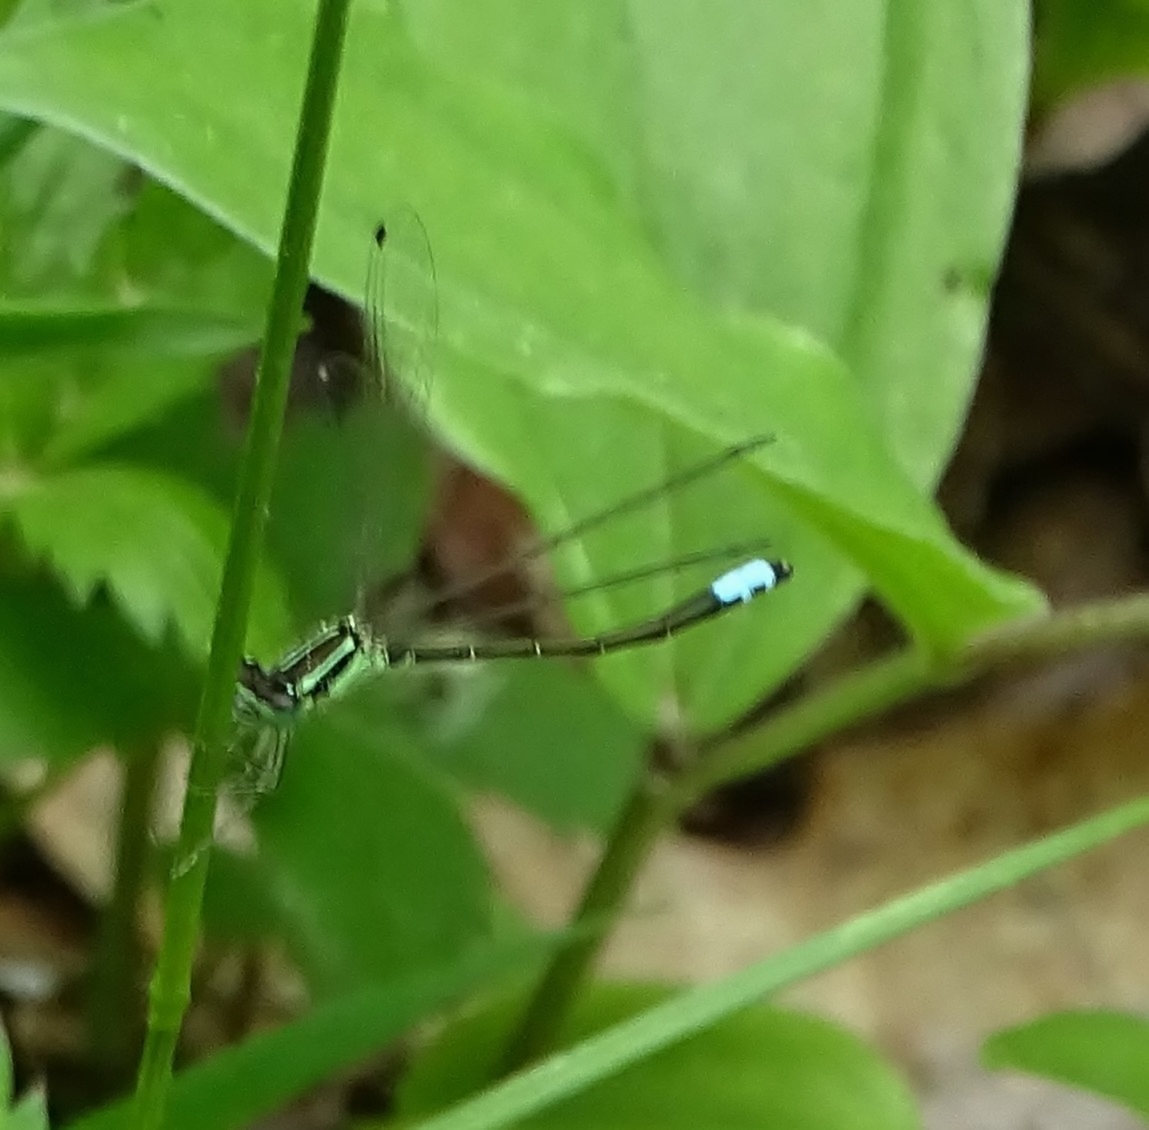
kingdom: Animalia
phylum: Arthropoda
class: Insecta
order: Odonata
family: Coenagrionidae
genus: Ischnura
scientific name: Ischnura verticalis
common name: Eastern forktail
